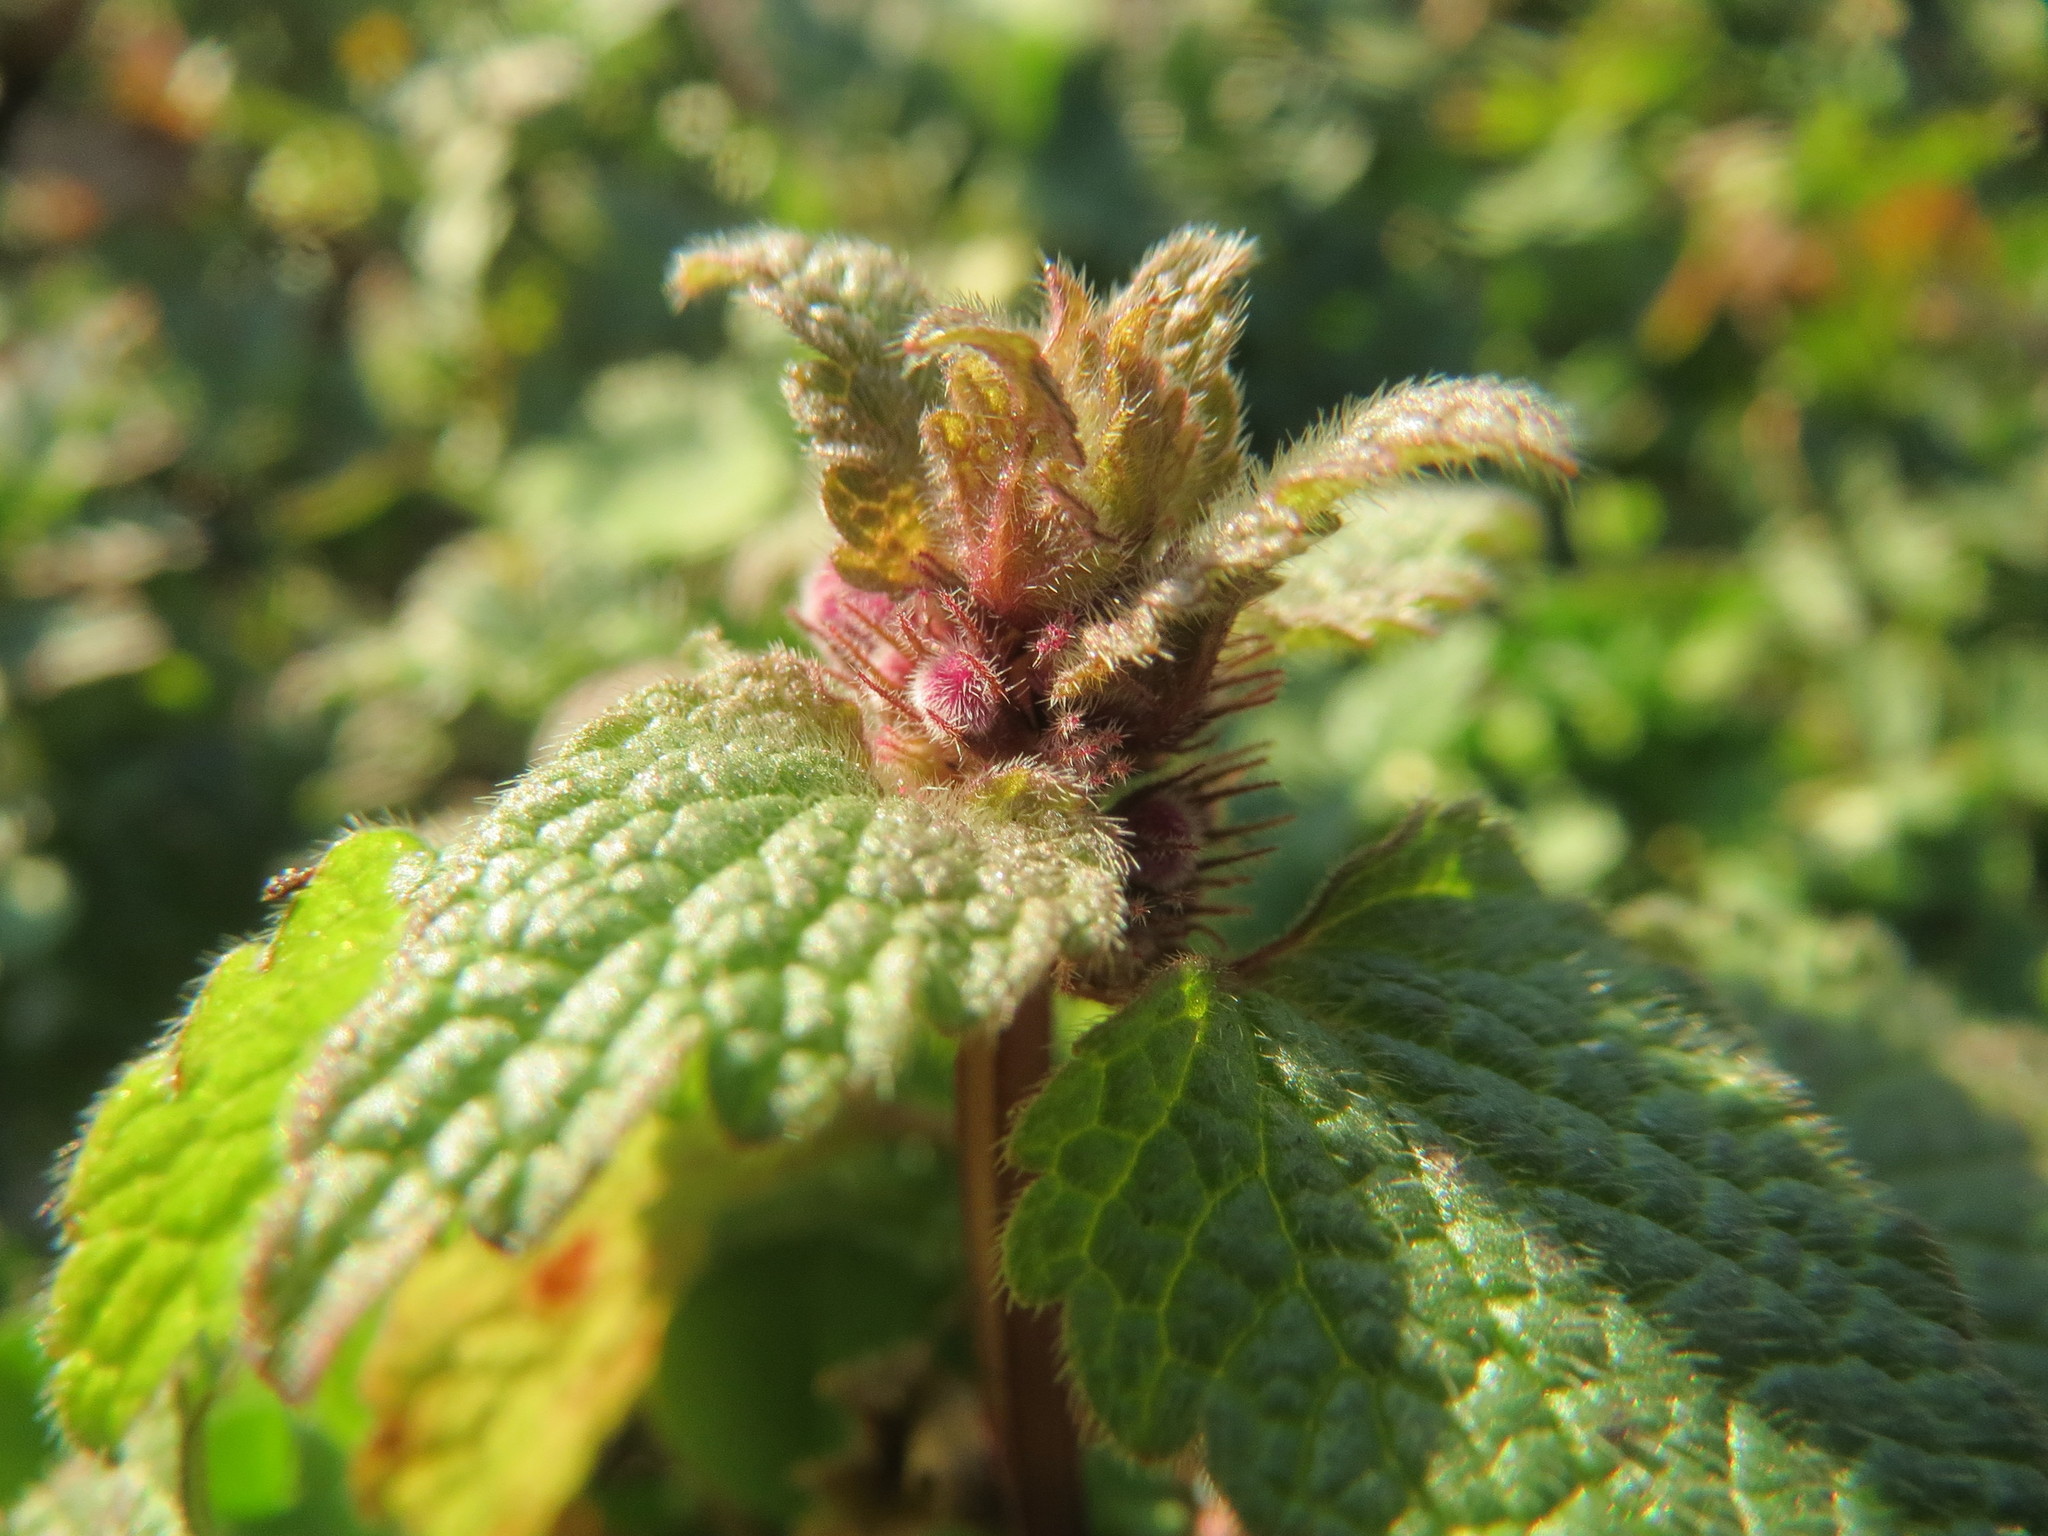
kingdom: Plantae
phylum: Tracheophyta
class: Magnoliopsida
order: Lamiales
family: Lamiaceae
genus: Lamium
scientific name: Lamium purpureum
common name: Red dead-nettle
